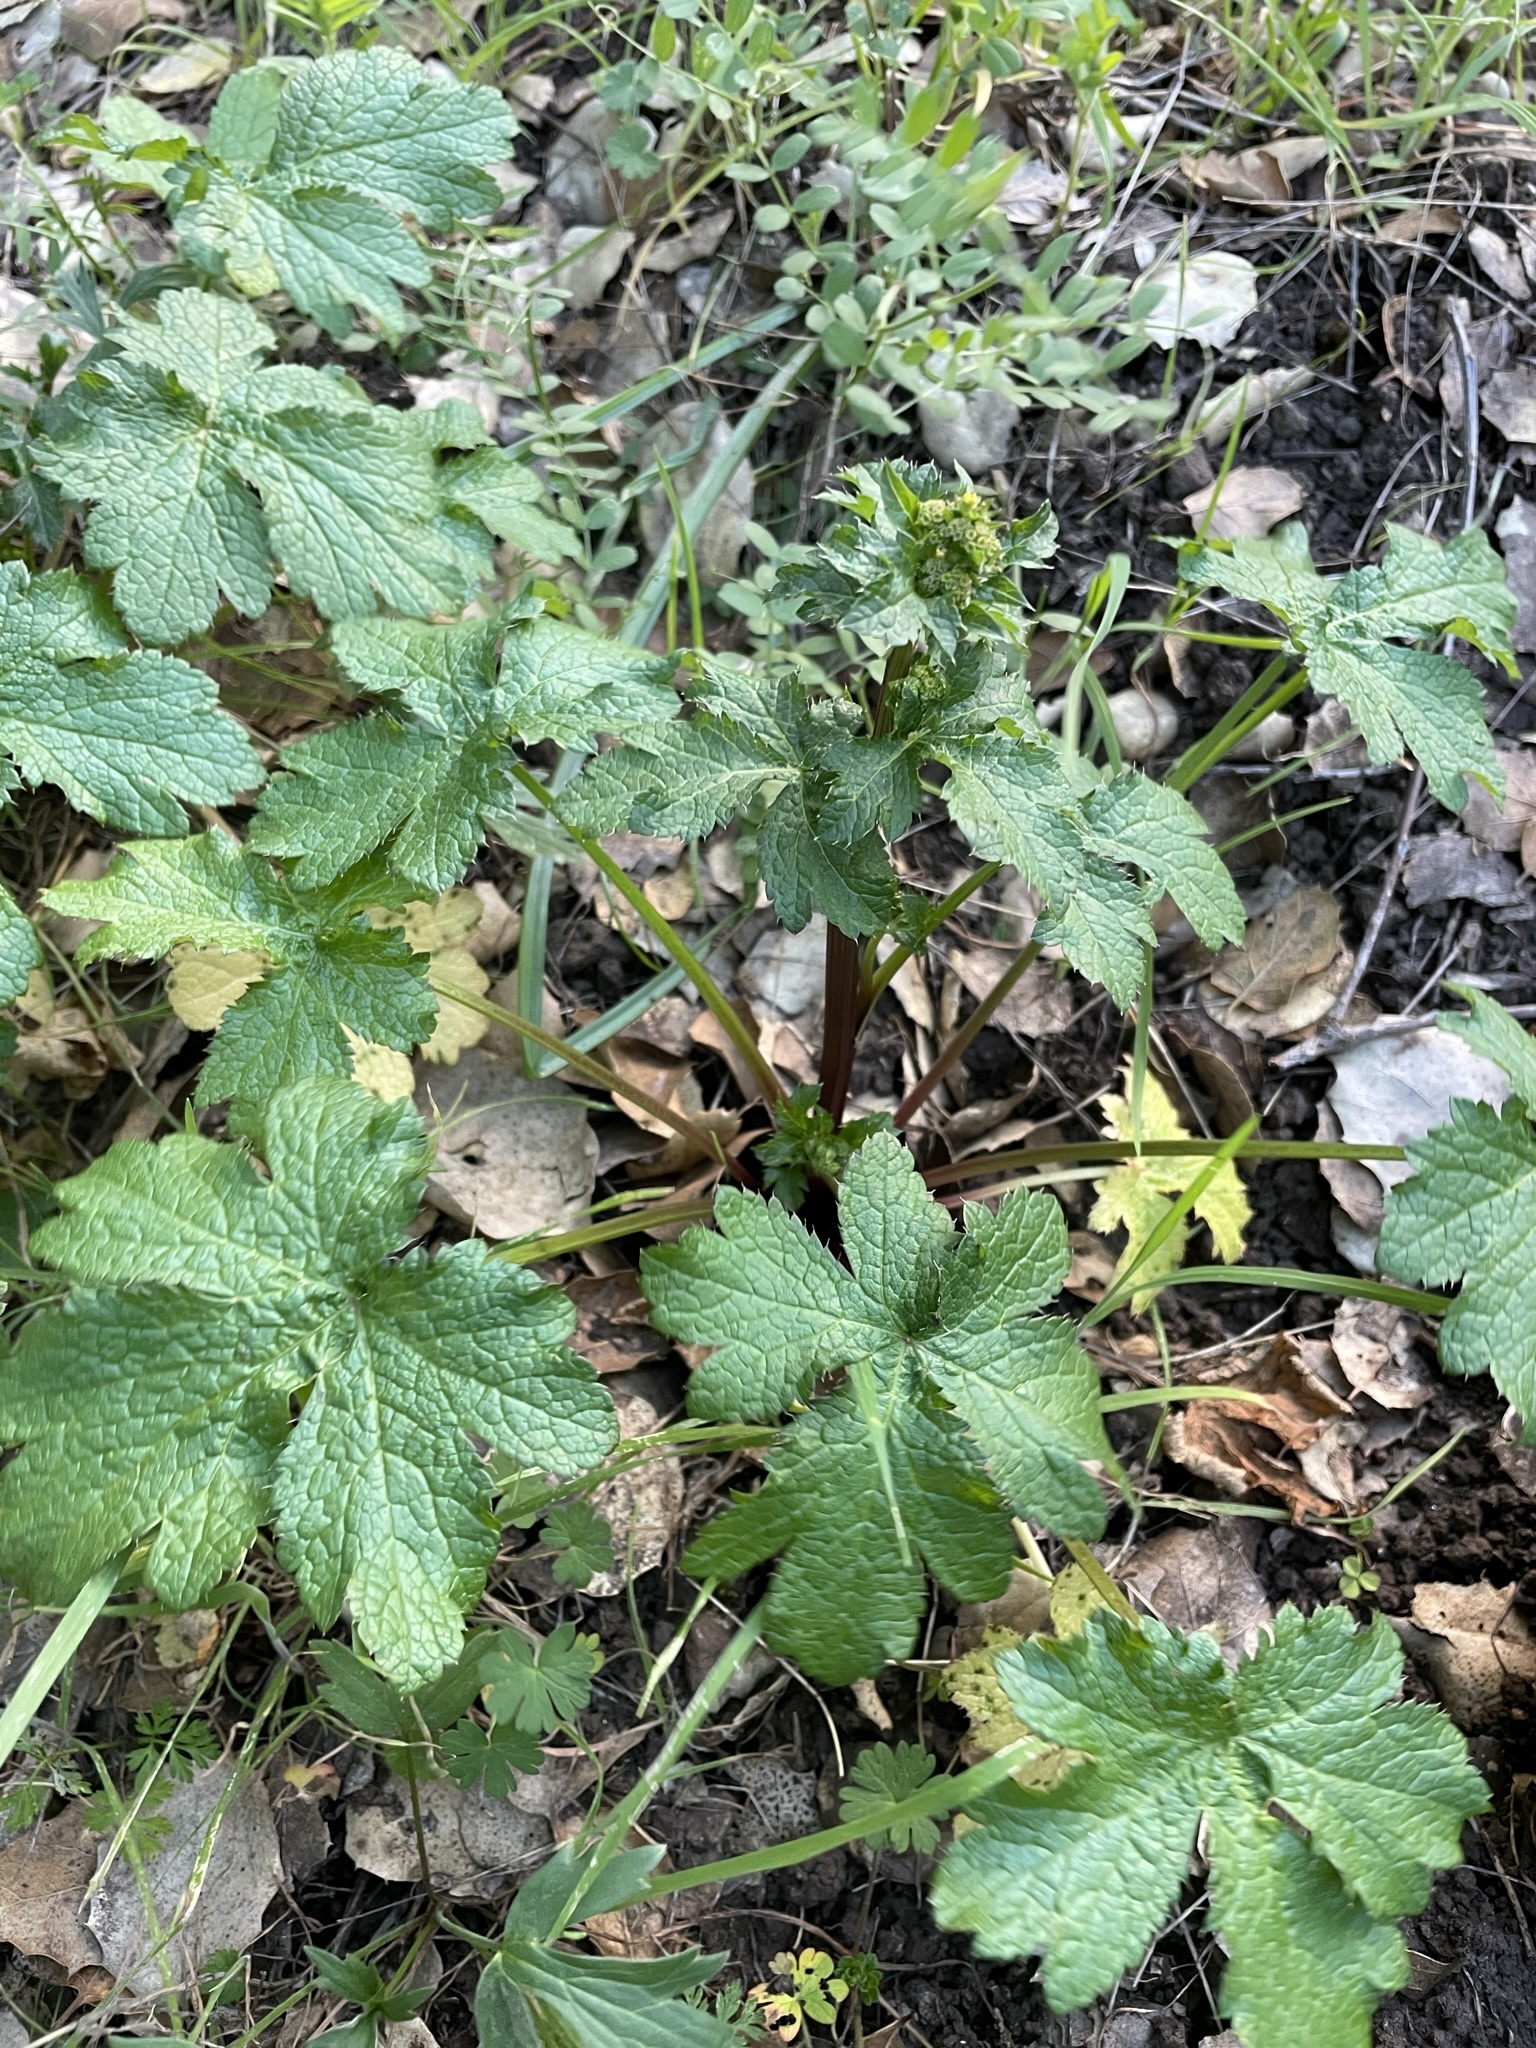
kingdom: Plantae
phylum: Tracheophyta
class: Magnoliopsida
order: Apiales
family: Apiaceae
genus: Sanicula
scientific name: Sanicula crassicaulis
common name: Western snakeroot
